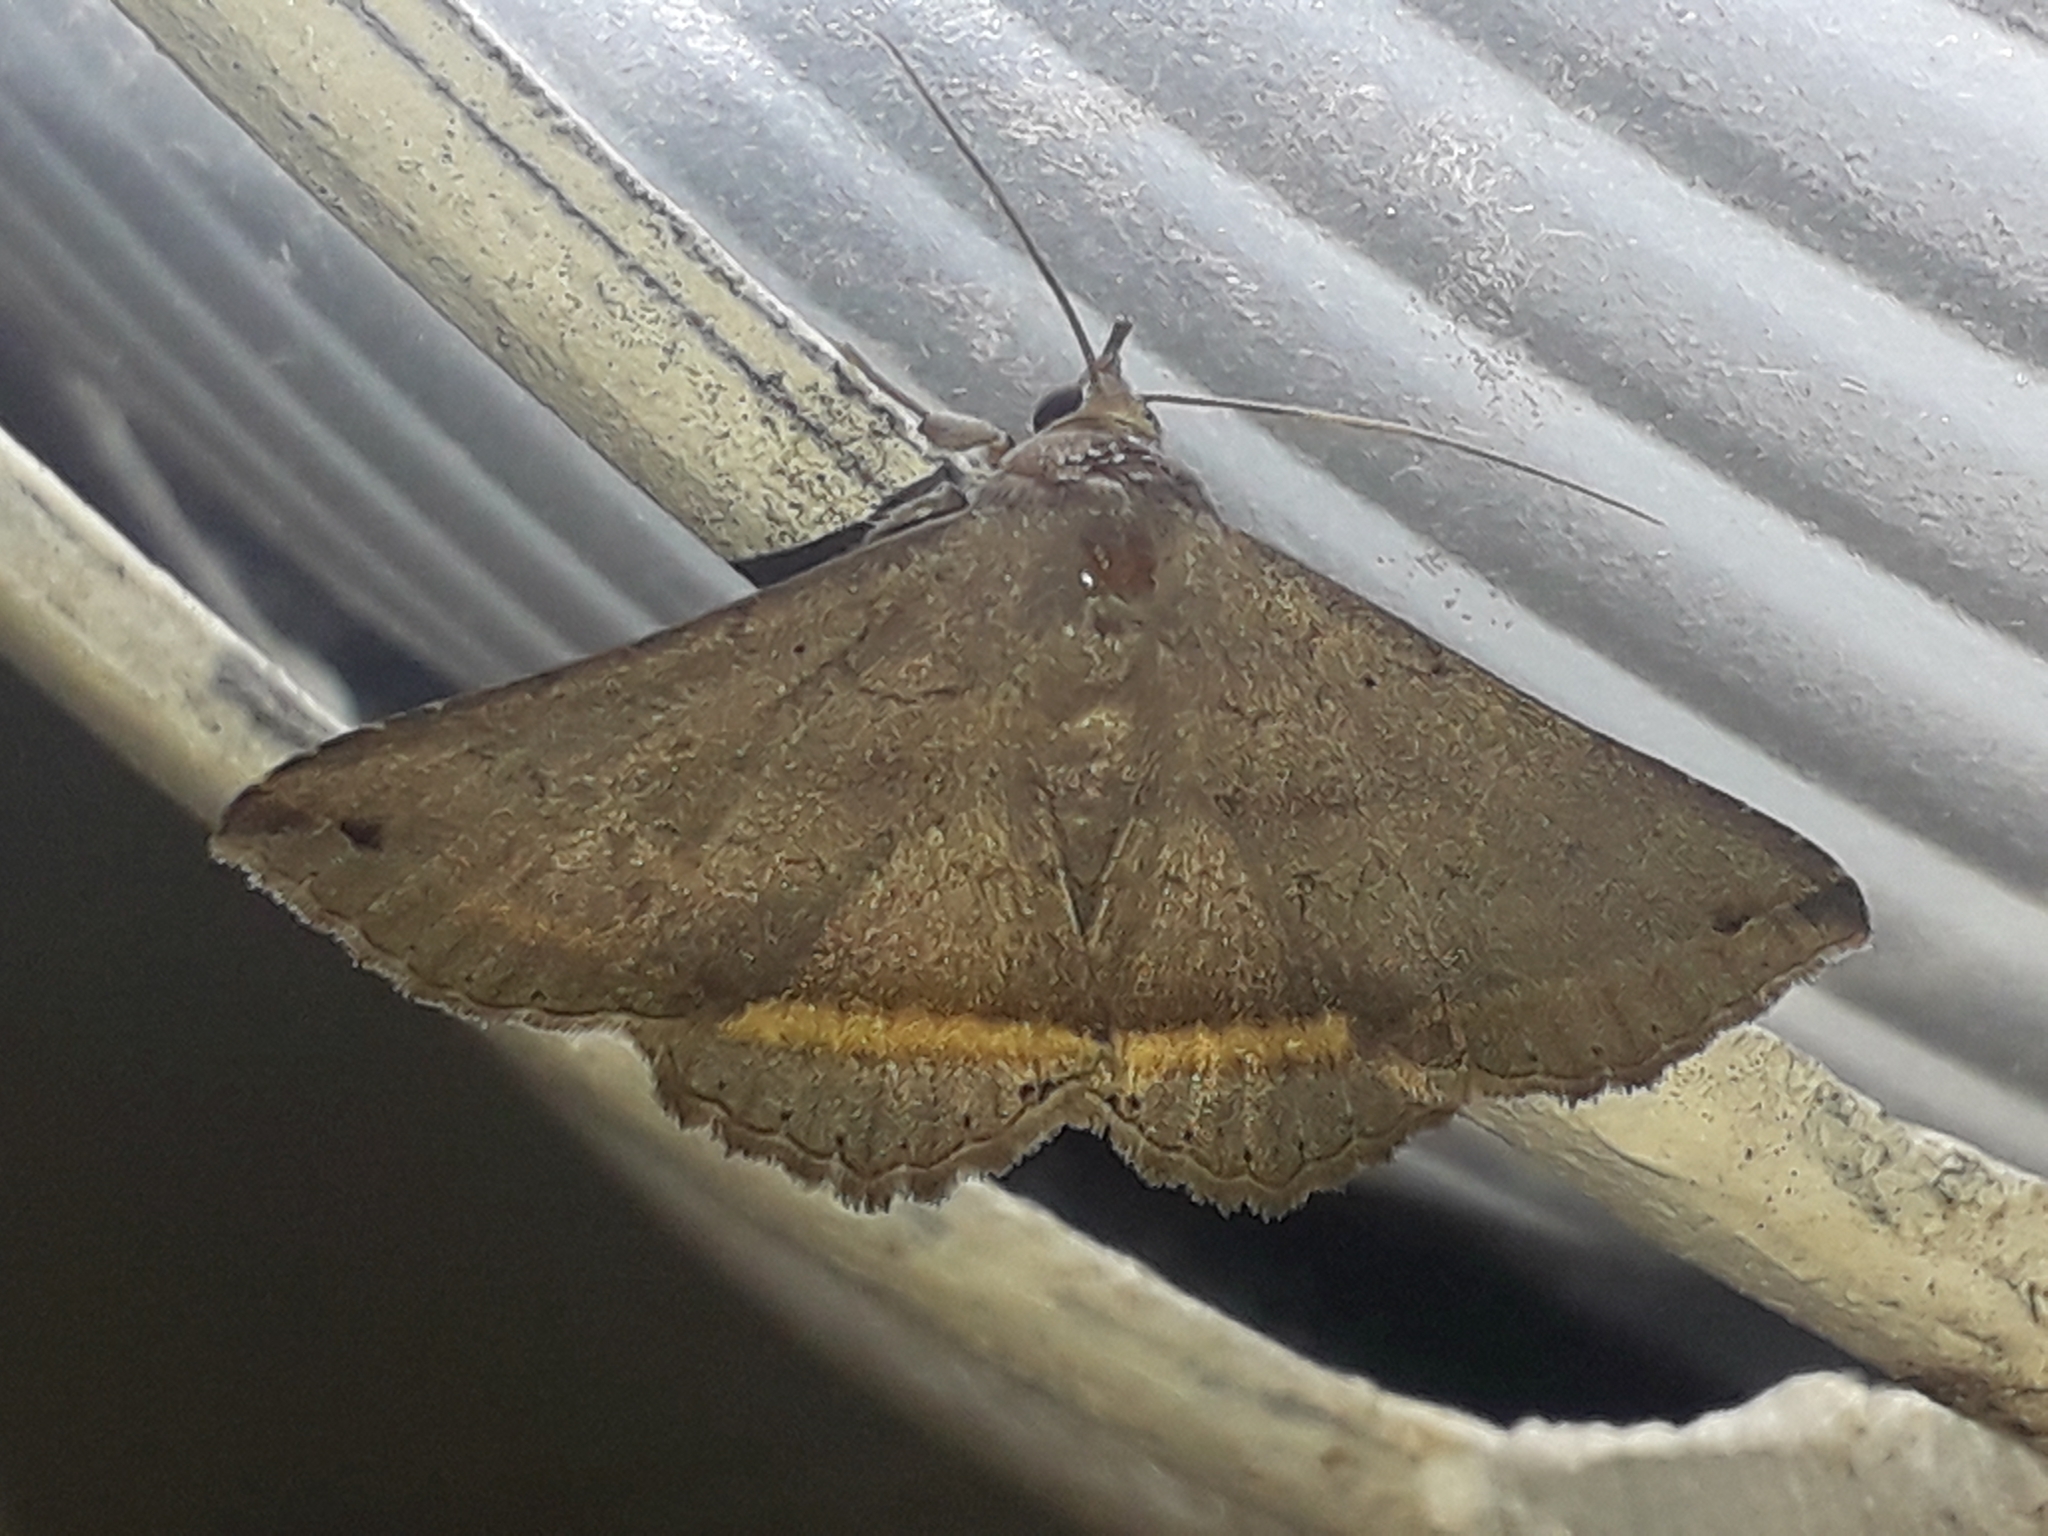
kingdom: Animalia
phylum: Arthropoda
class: Insecta
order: Lepidoptera
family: Erebidae
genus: Lesmone
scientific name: Lesmone formularis
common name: Lesmone moth
